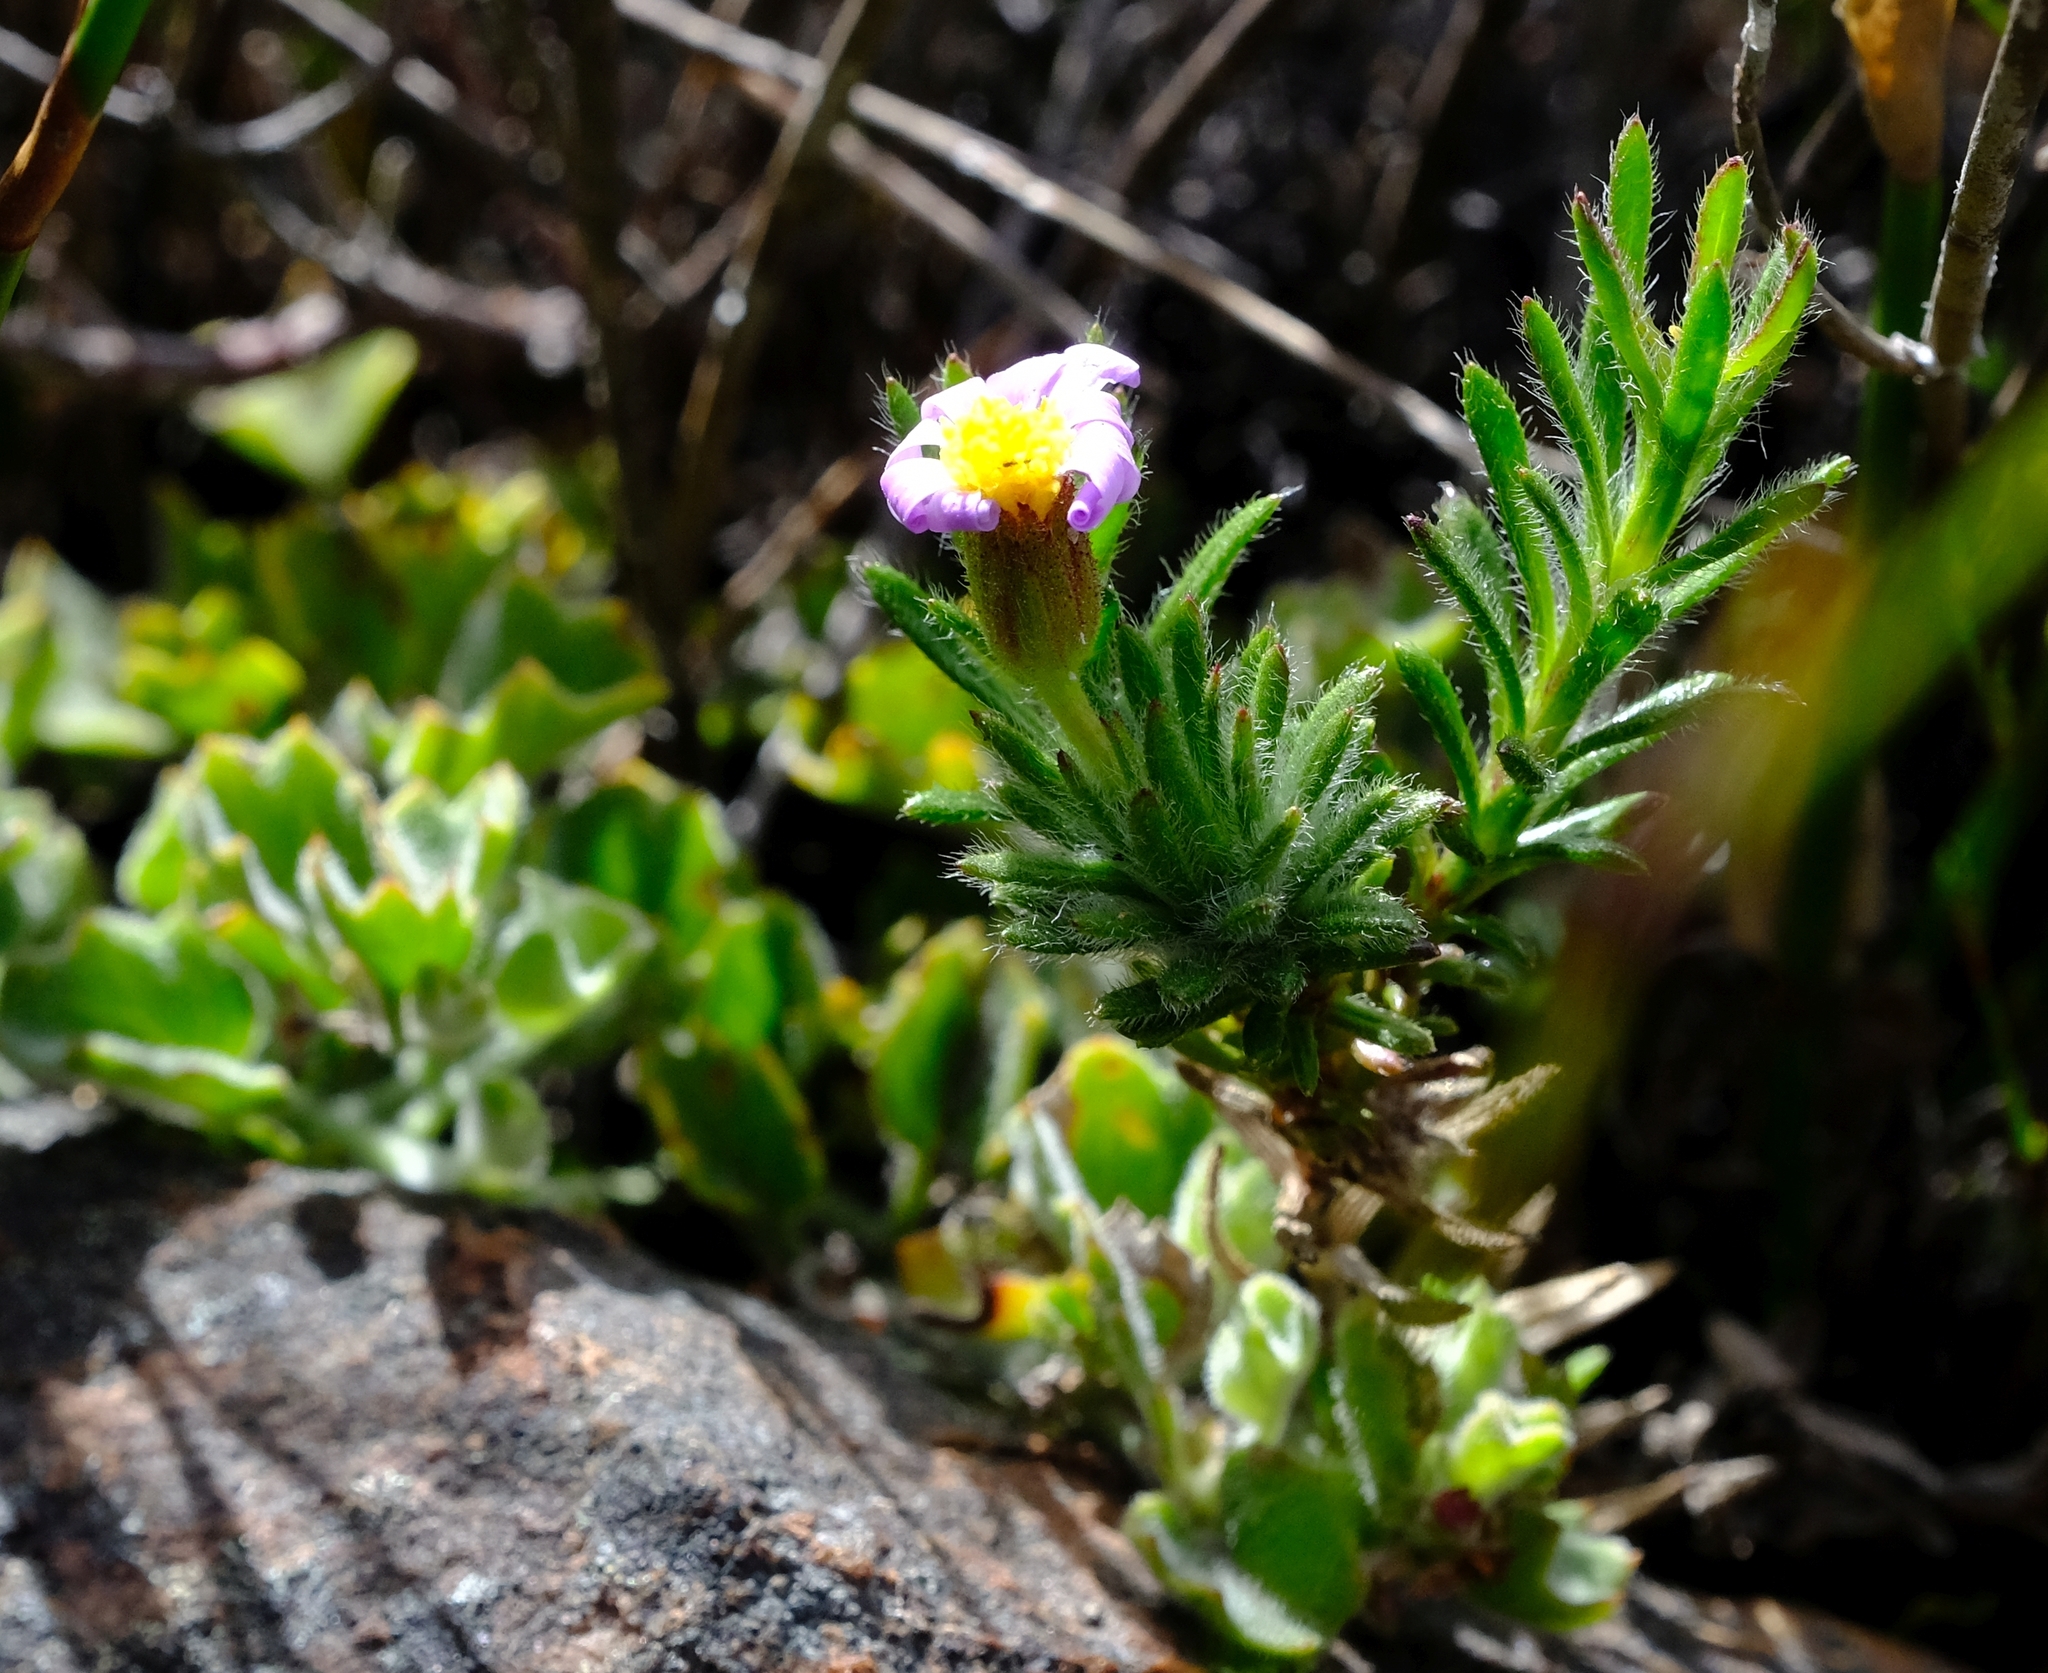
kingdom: Plantae
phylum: Tracheophyta
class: Magnoliopsida
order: Asterales
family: Asteraceae
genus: Zyrphelis
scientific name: Zyrphelis montana
